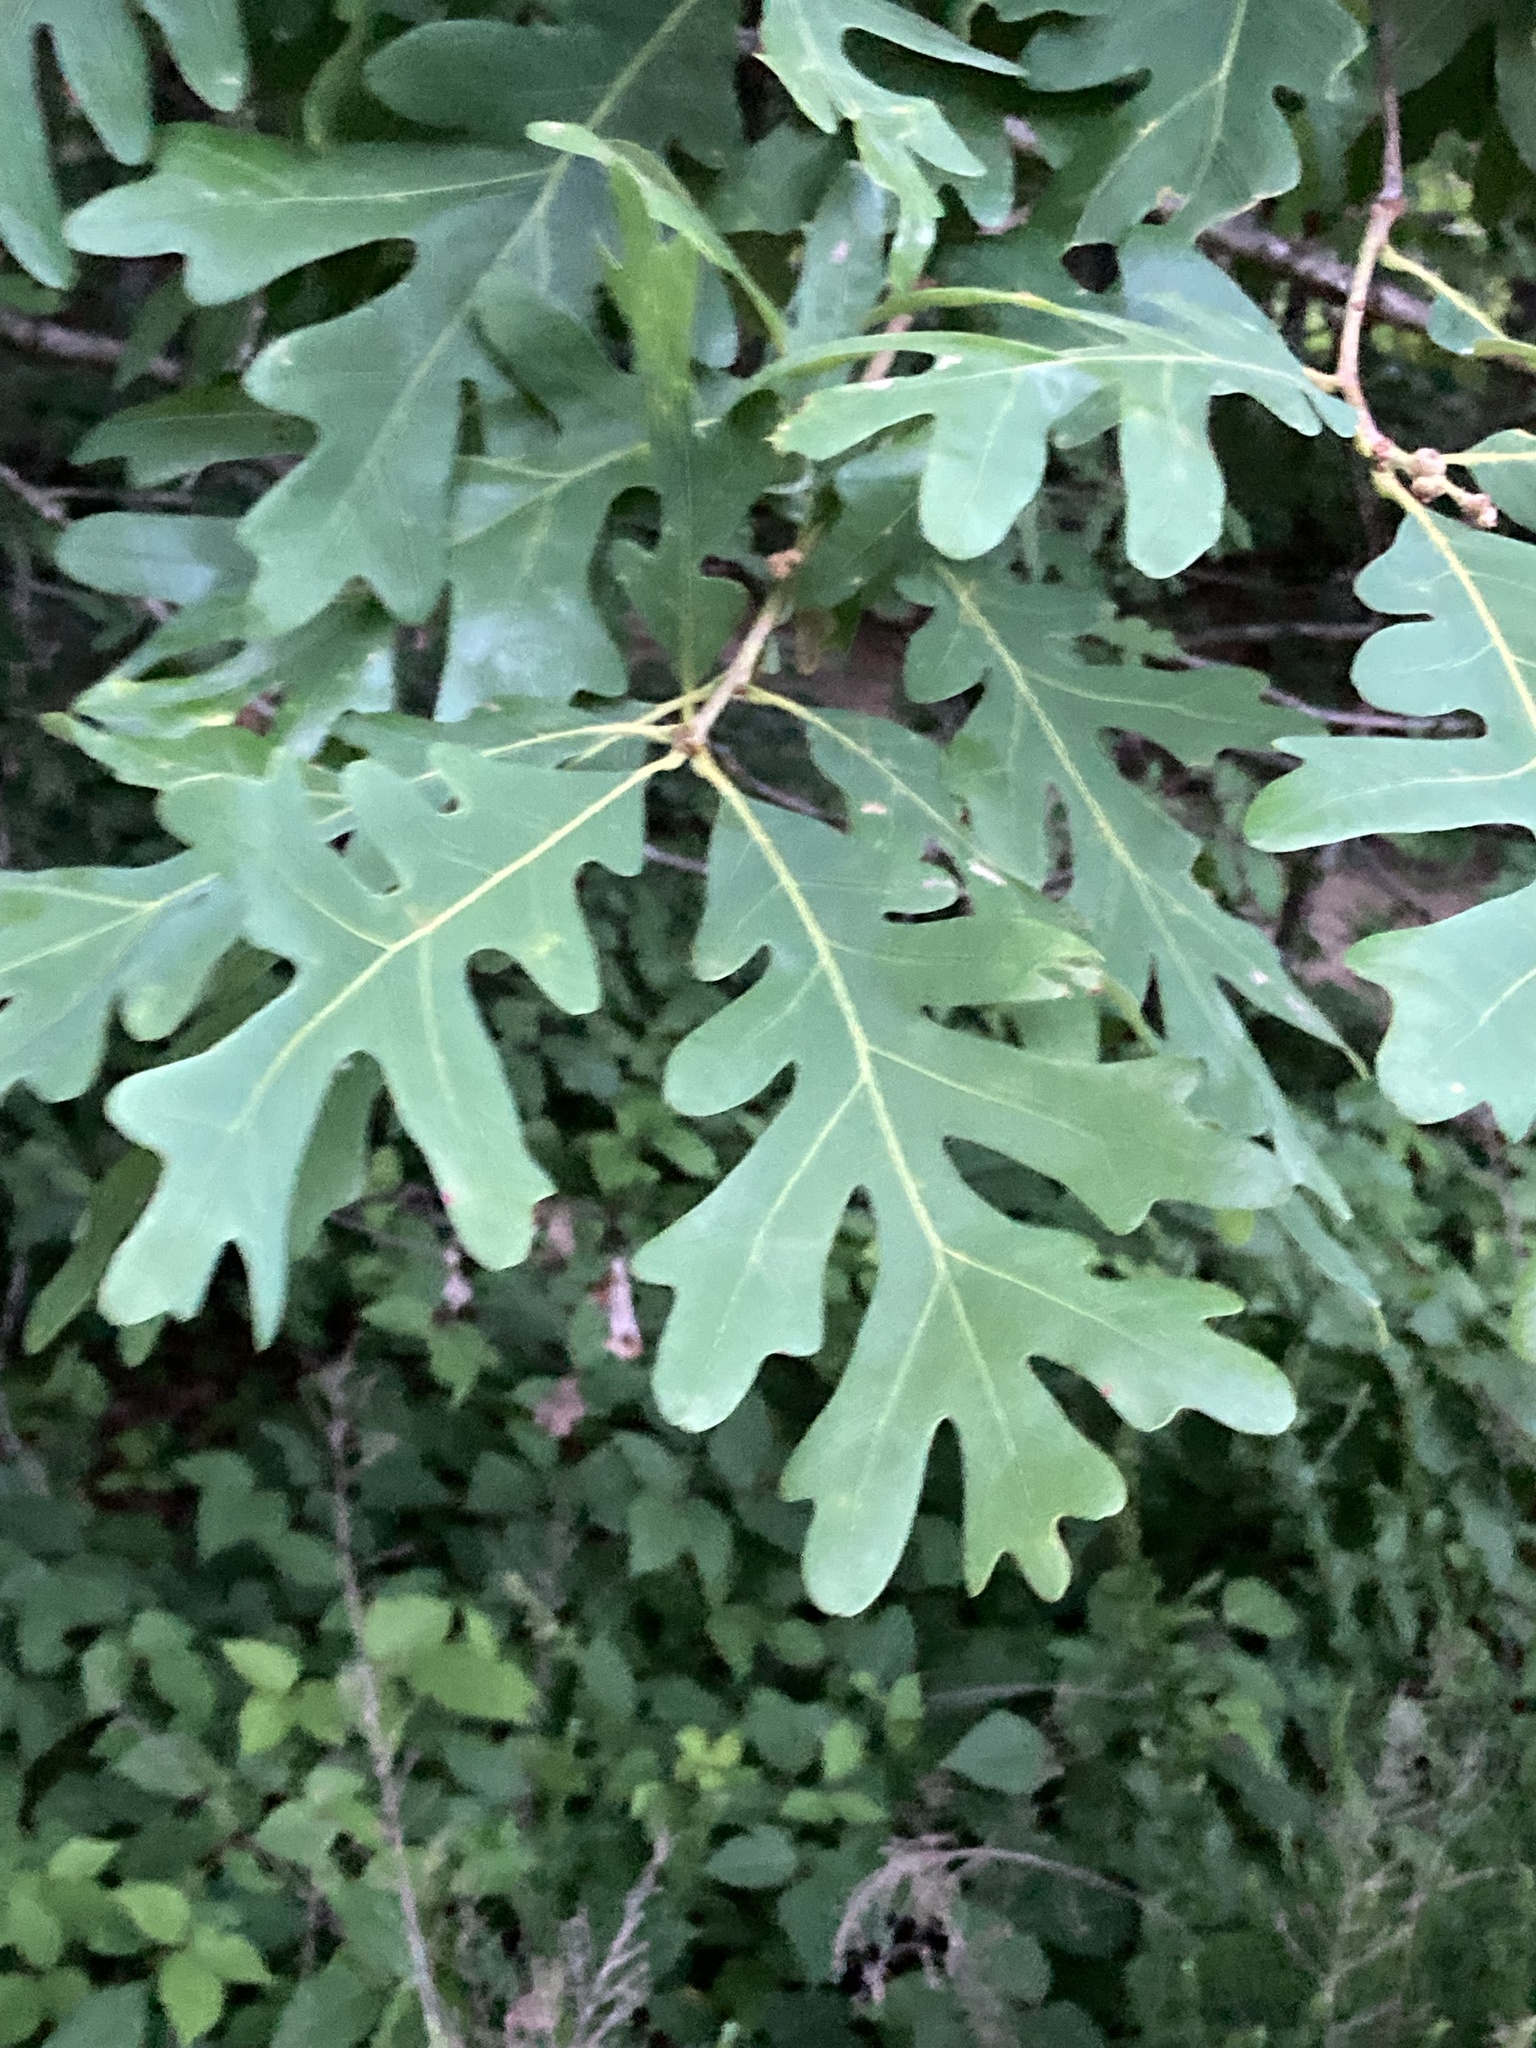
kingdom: Plantae
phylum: Tracheophyta
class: Magnoliopsida
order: Fagales
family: Fagaceae
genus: Quercus
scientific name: Quercus alba
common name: White oak
